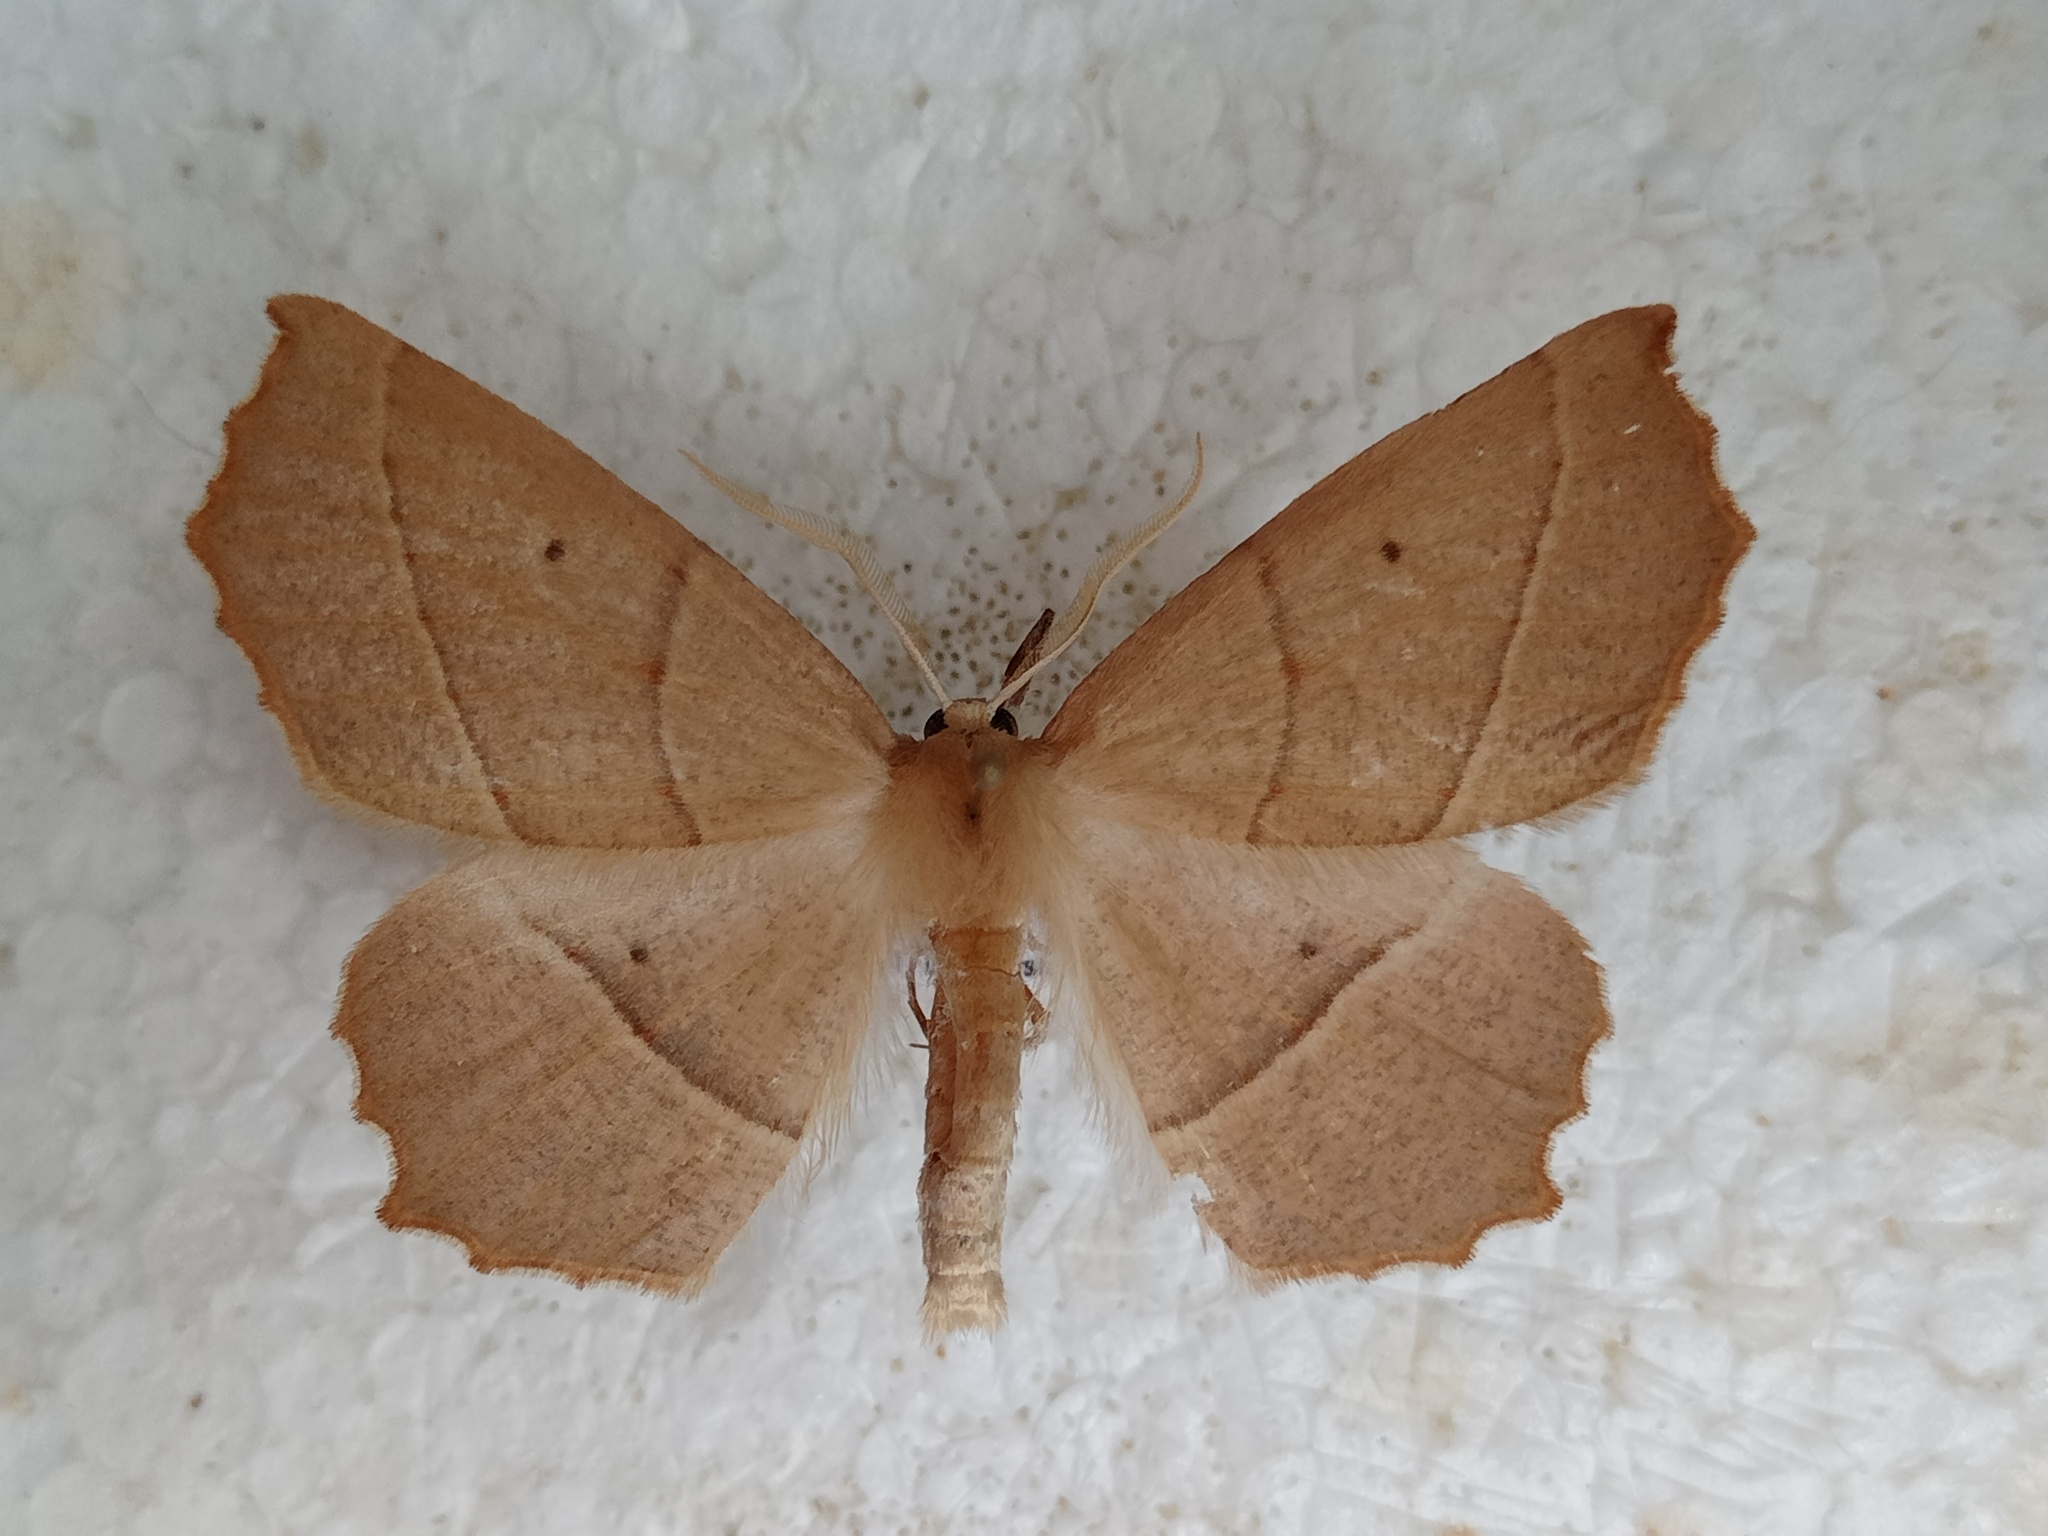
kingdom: Animalia
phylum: Arthropoda
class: Insecta
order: Lepidoptera
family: Geometridae
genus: Gerinia
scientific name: Gerinia honoraria
